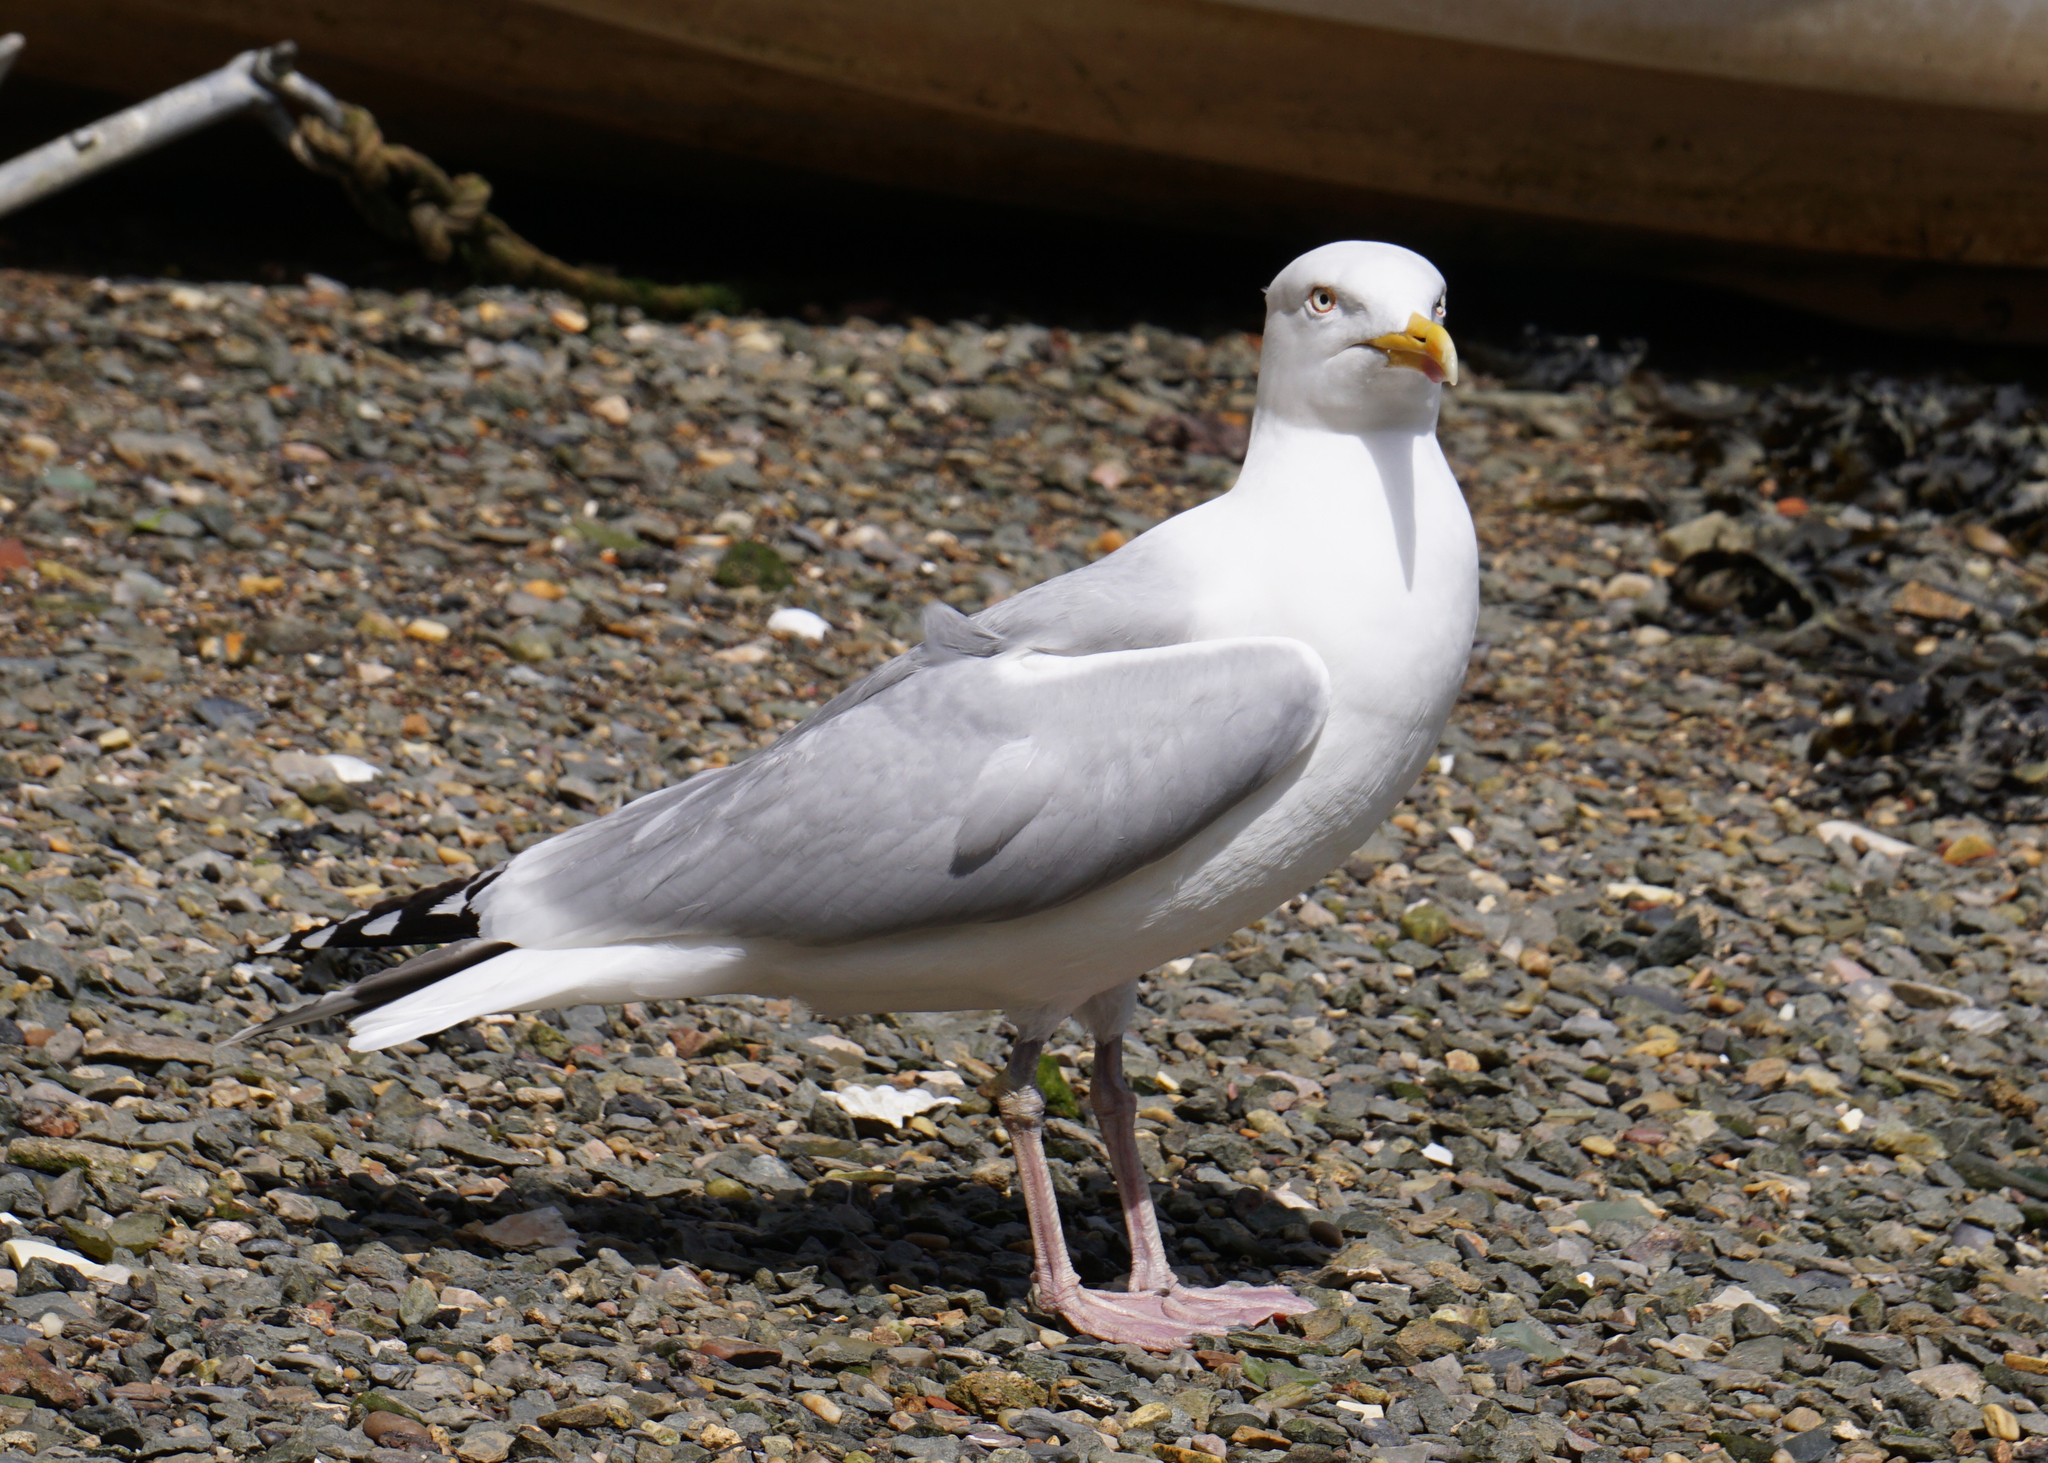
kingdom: Animalia
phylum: Chordata
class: Aves
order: Charadriiformes
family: Laridae
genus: Larus
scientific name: Larus argentatus
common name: Herring gull
